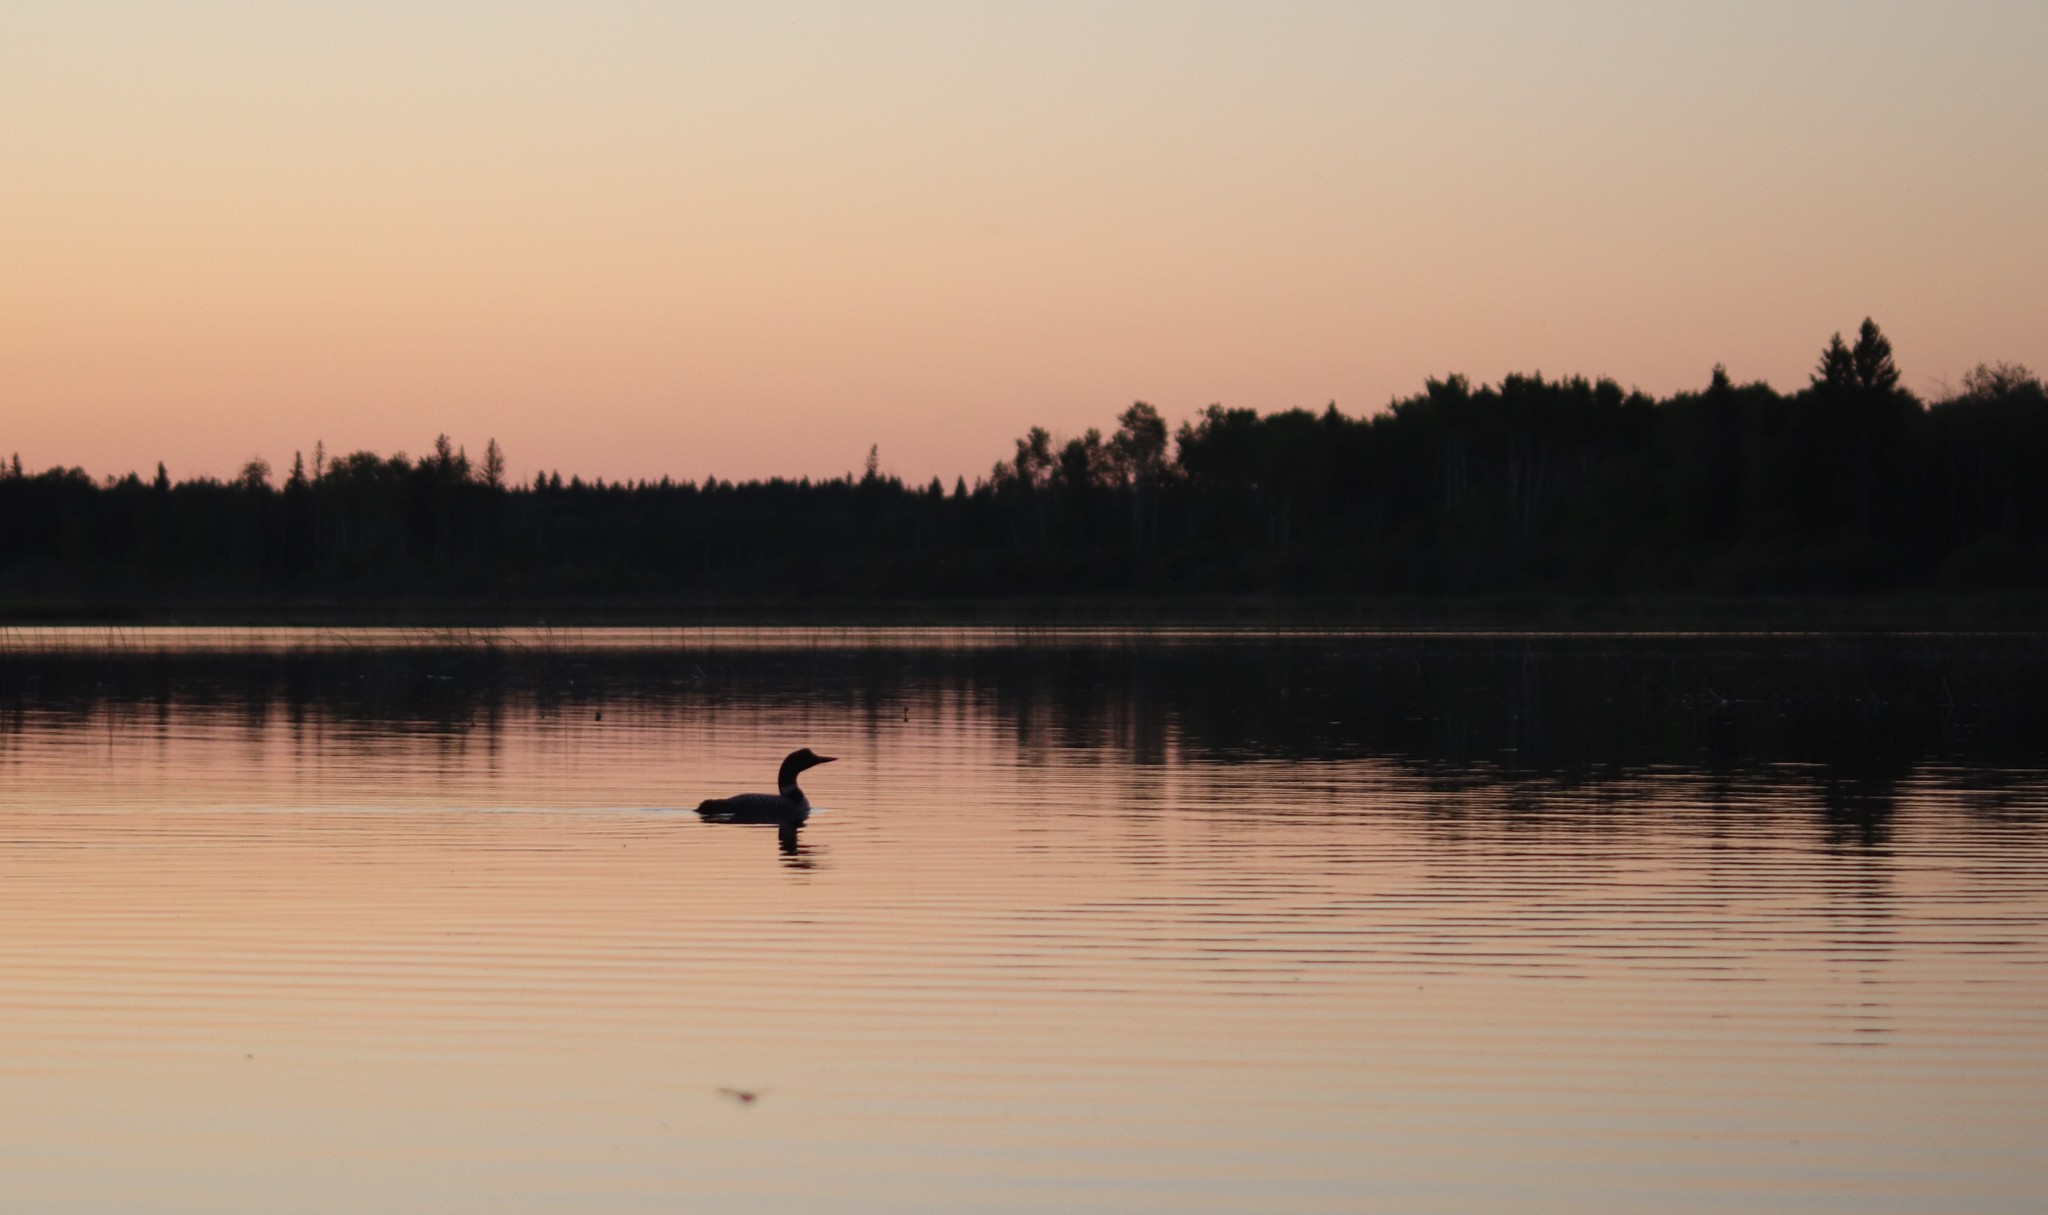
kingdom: Animalia
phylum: Chordata
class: Aves
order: Gaviiformes
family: Gaviidae
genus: Gavia
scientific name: Gavia immer
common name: Common loon
